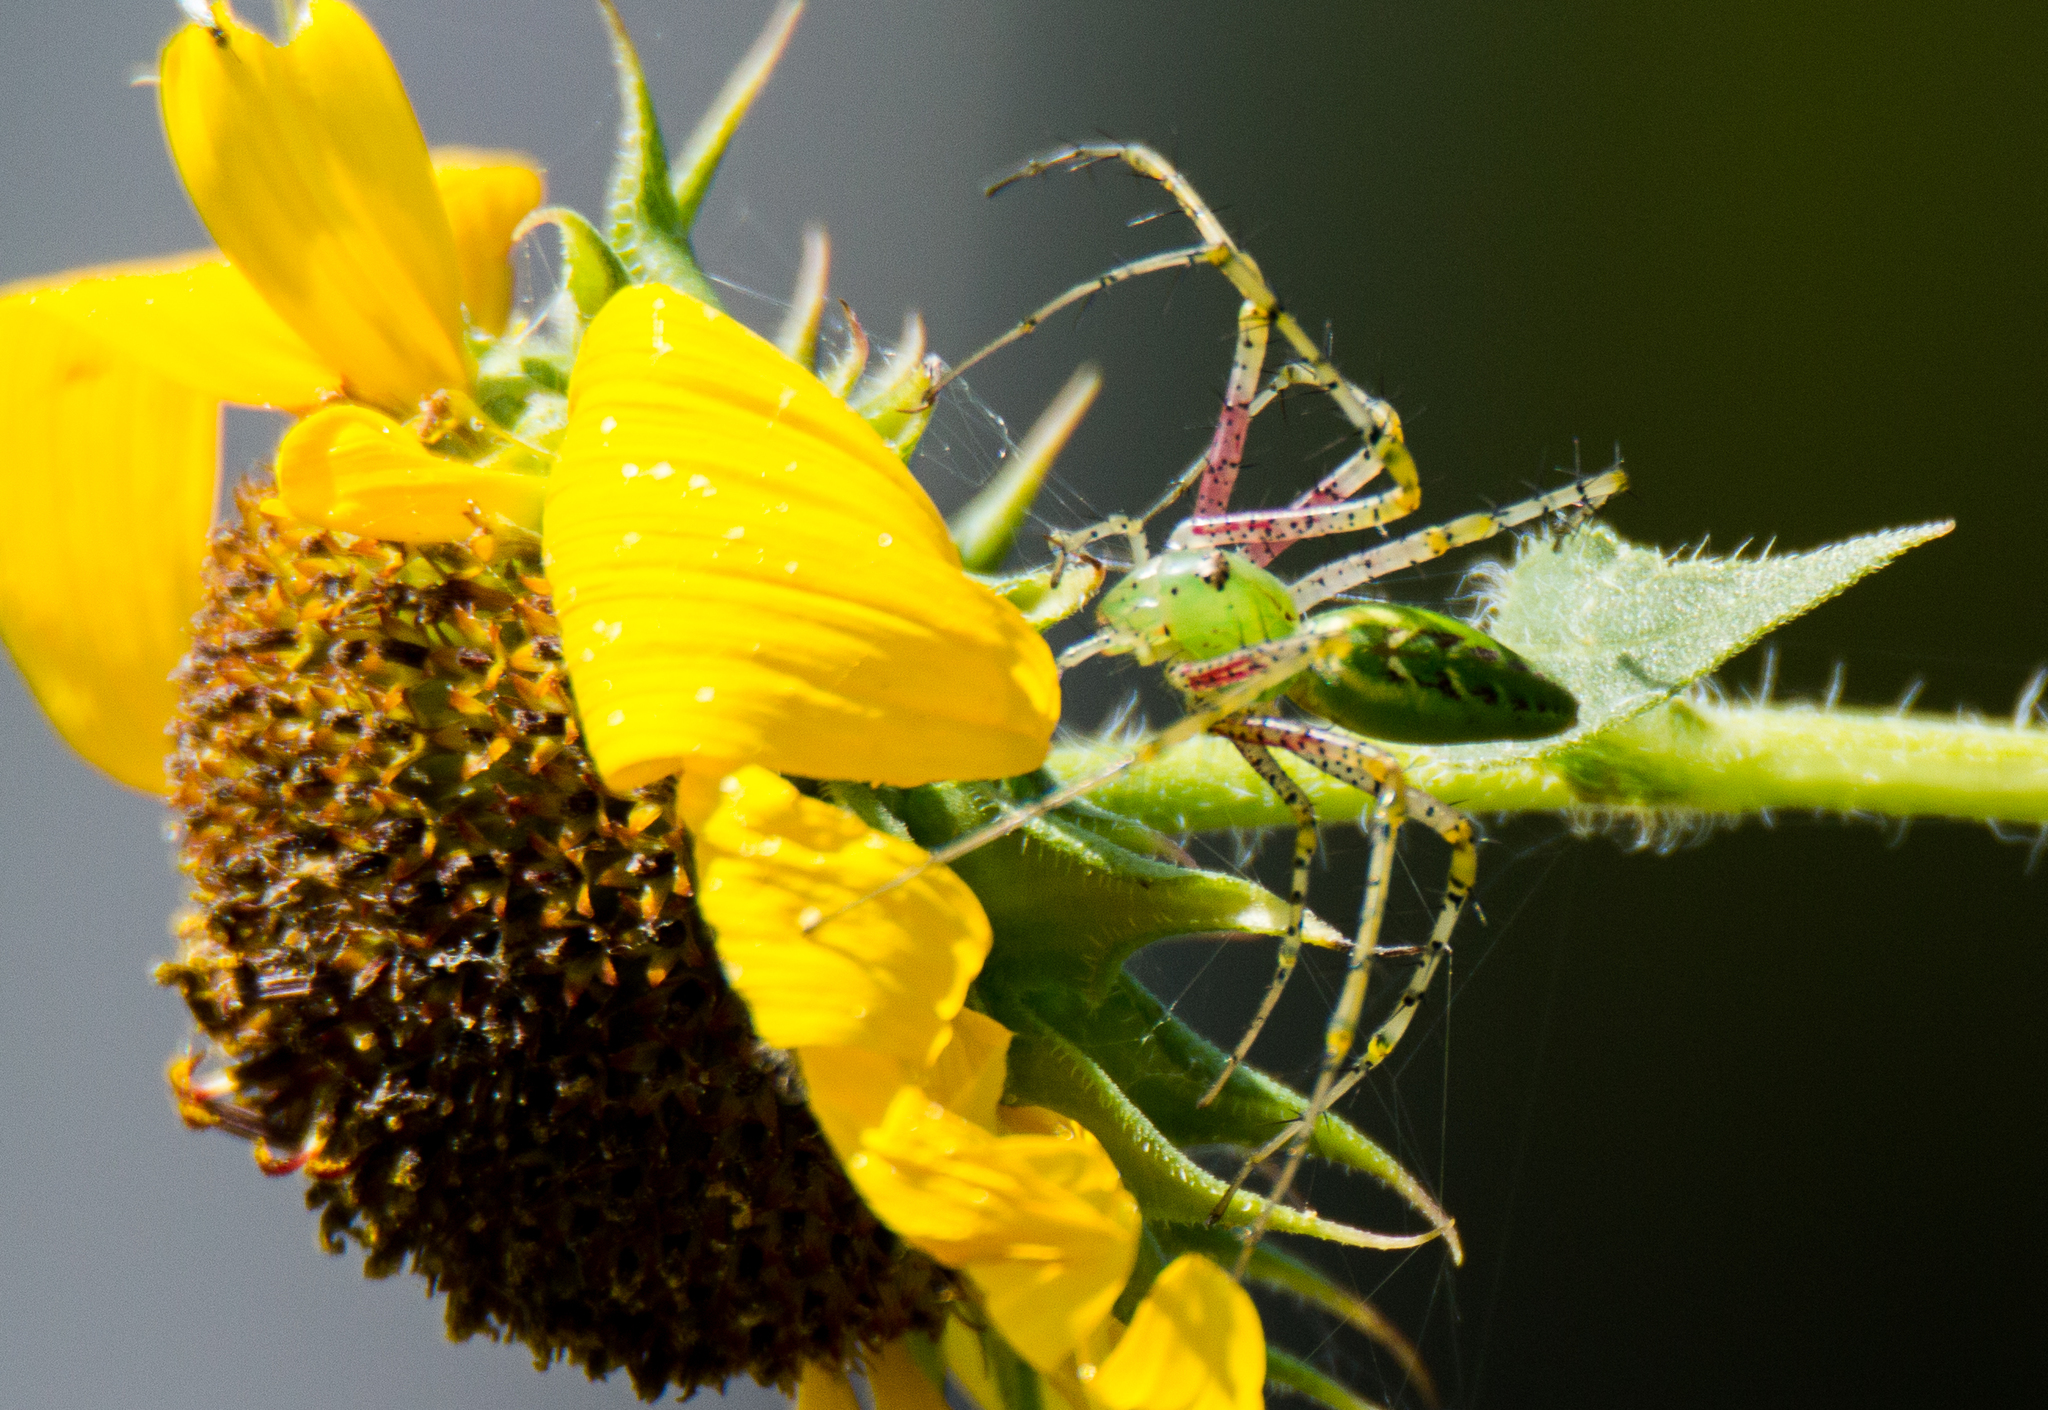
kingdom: Animalia
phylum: Arthropoda
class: Arachnida
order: Araneae
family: Oxyopidae
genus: Peucetia
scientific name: Peucetia viridans
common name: Lynx spiders
